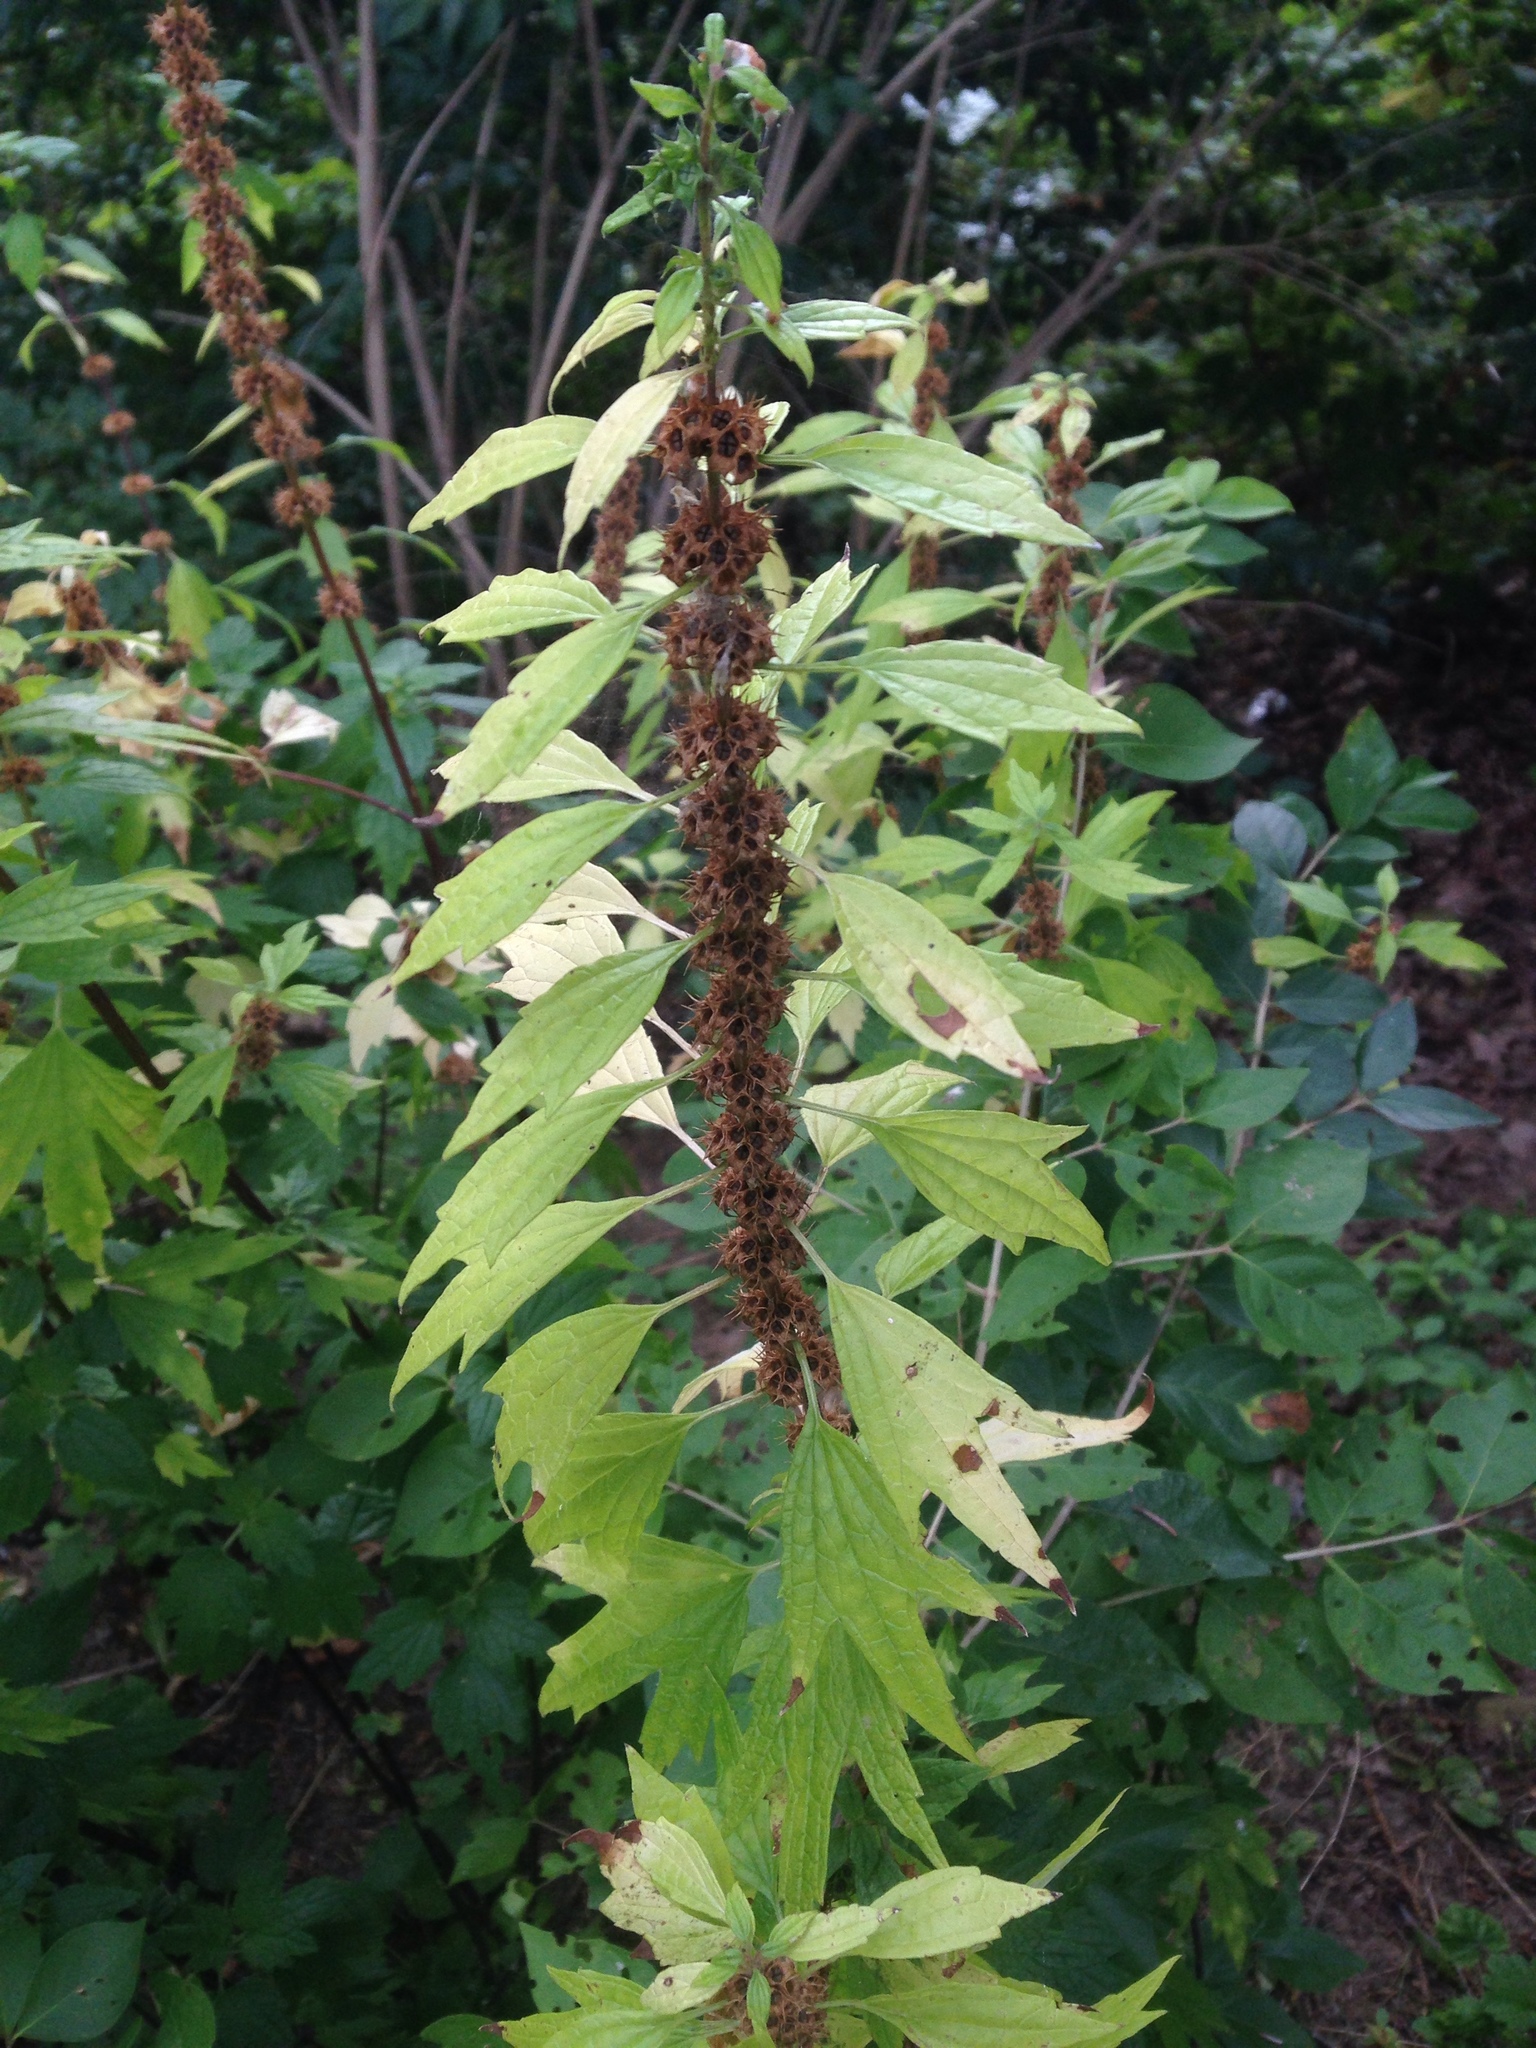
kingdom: Plantae
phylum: Tracheophyta
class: Magnoliopsida
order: Lamiales
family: Lamiaceae
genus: Leonurus
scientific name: Leonurus cardiaca
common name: Motherwort
